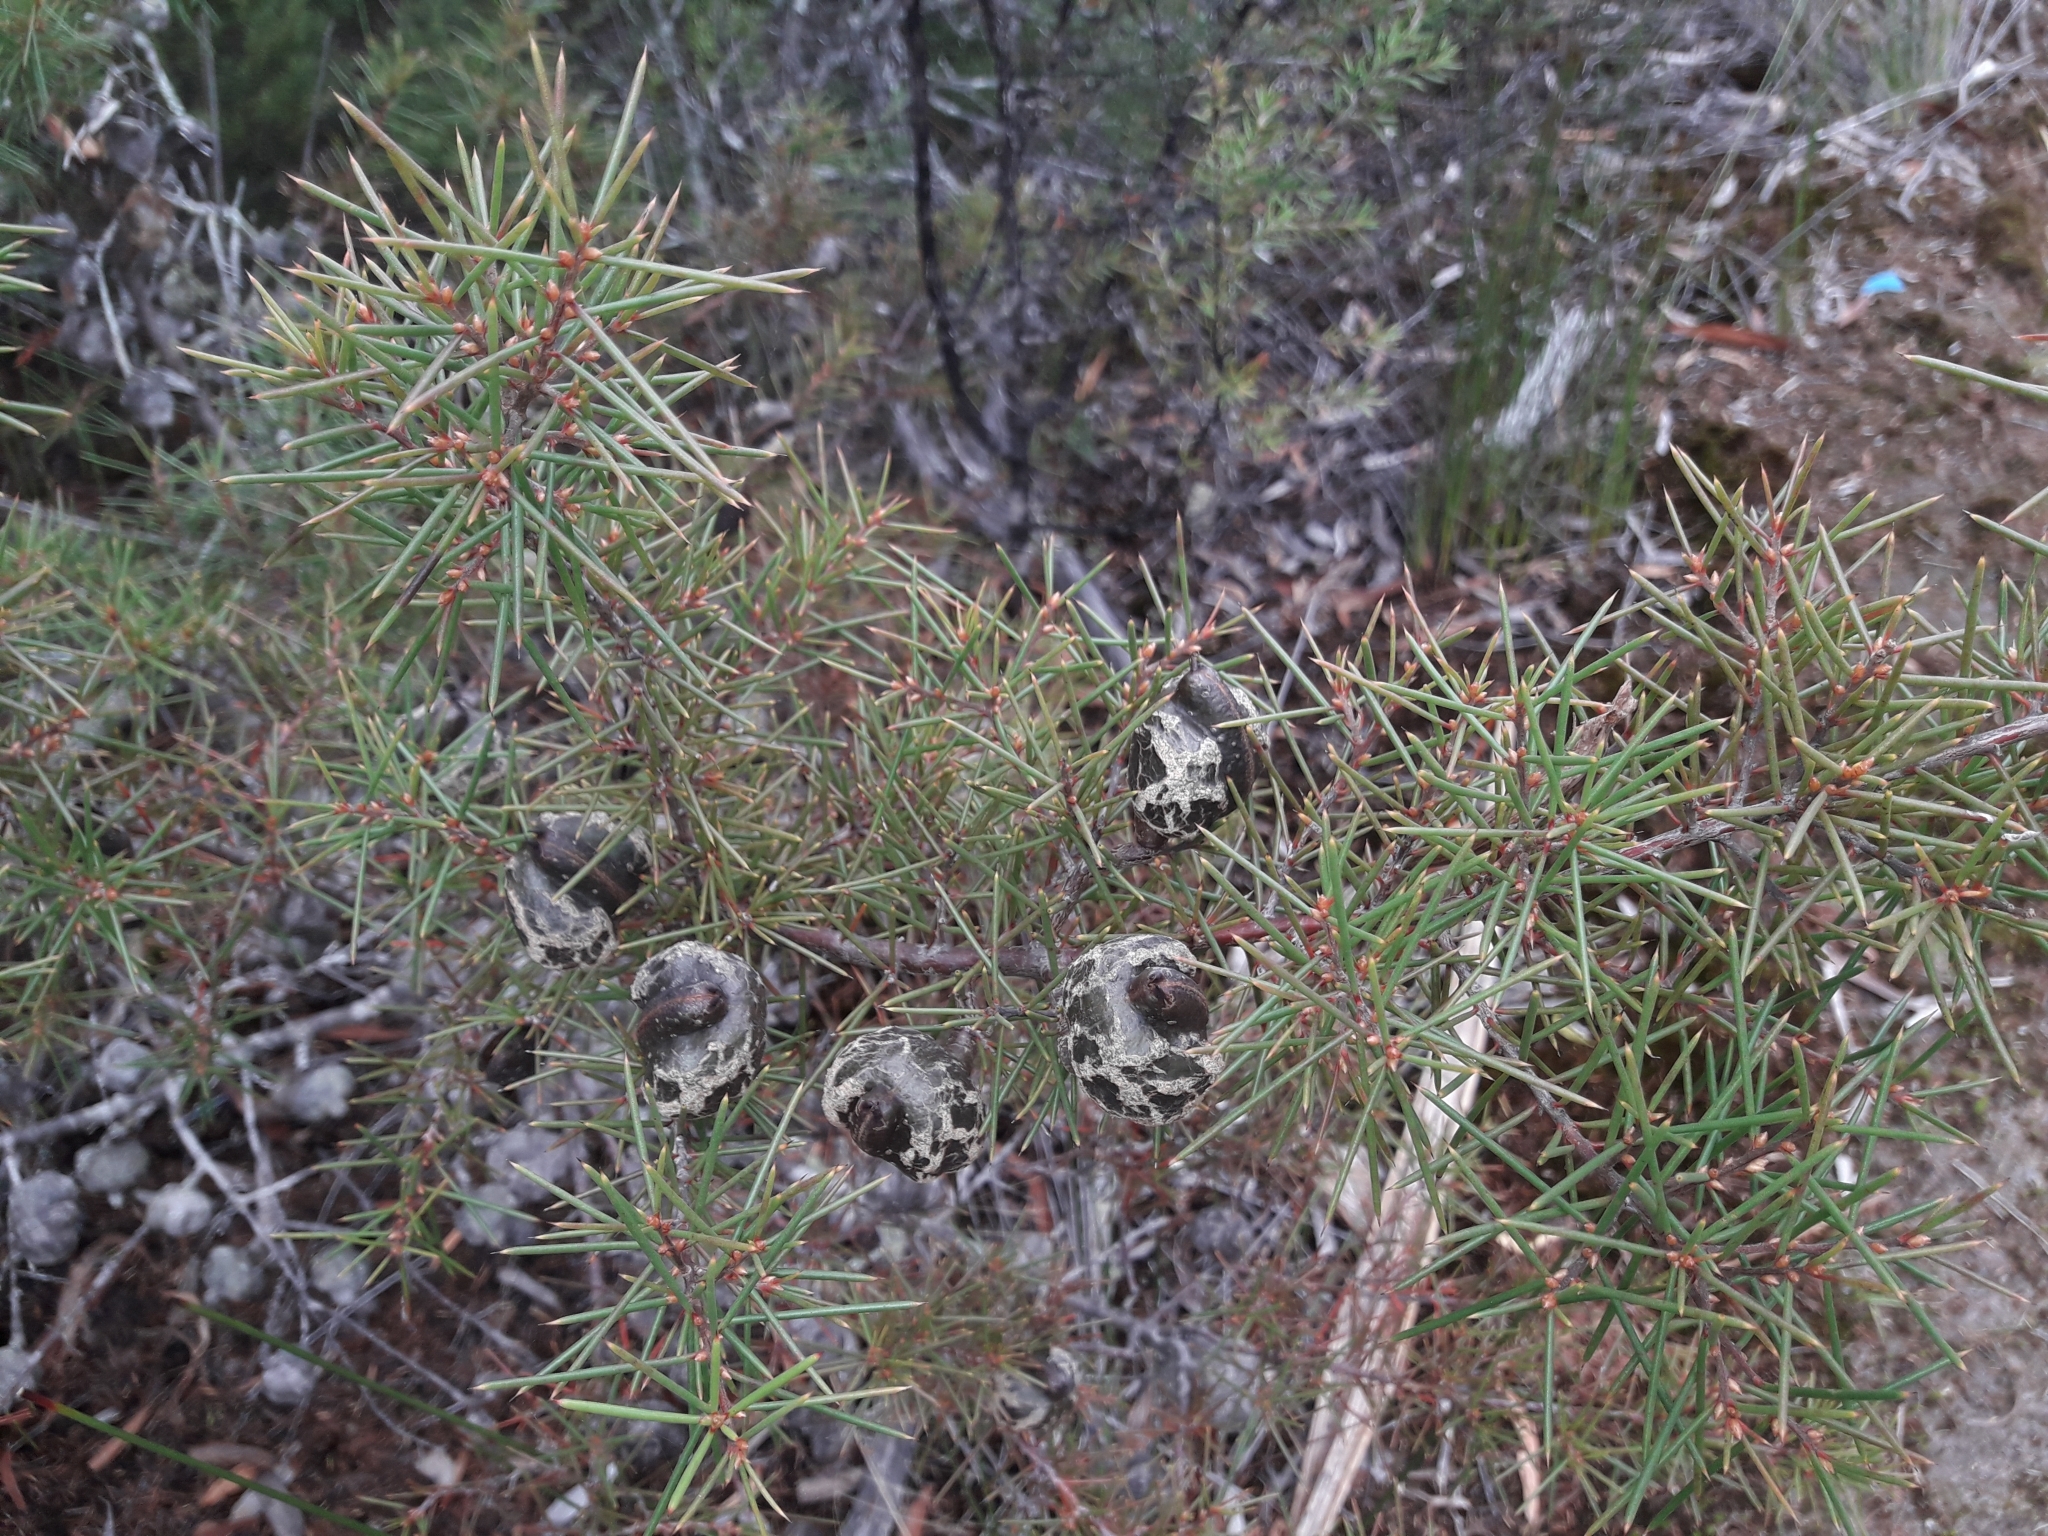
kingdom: Plantae
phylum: Tracheophyta
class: Magnoliopsida
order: Proteales
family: Proteaceae
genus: Hakea
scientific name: Hakea sericea
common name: Needle bush
